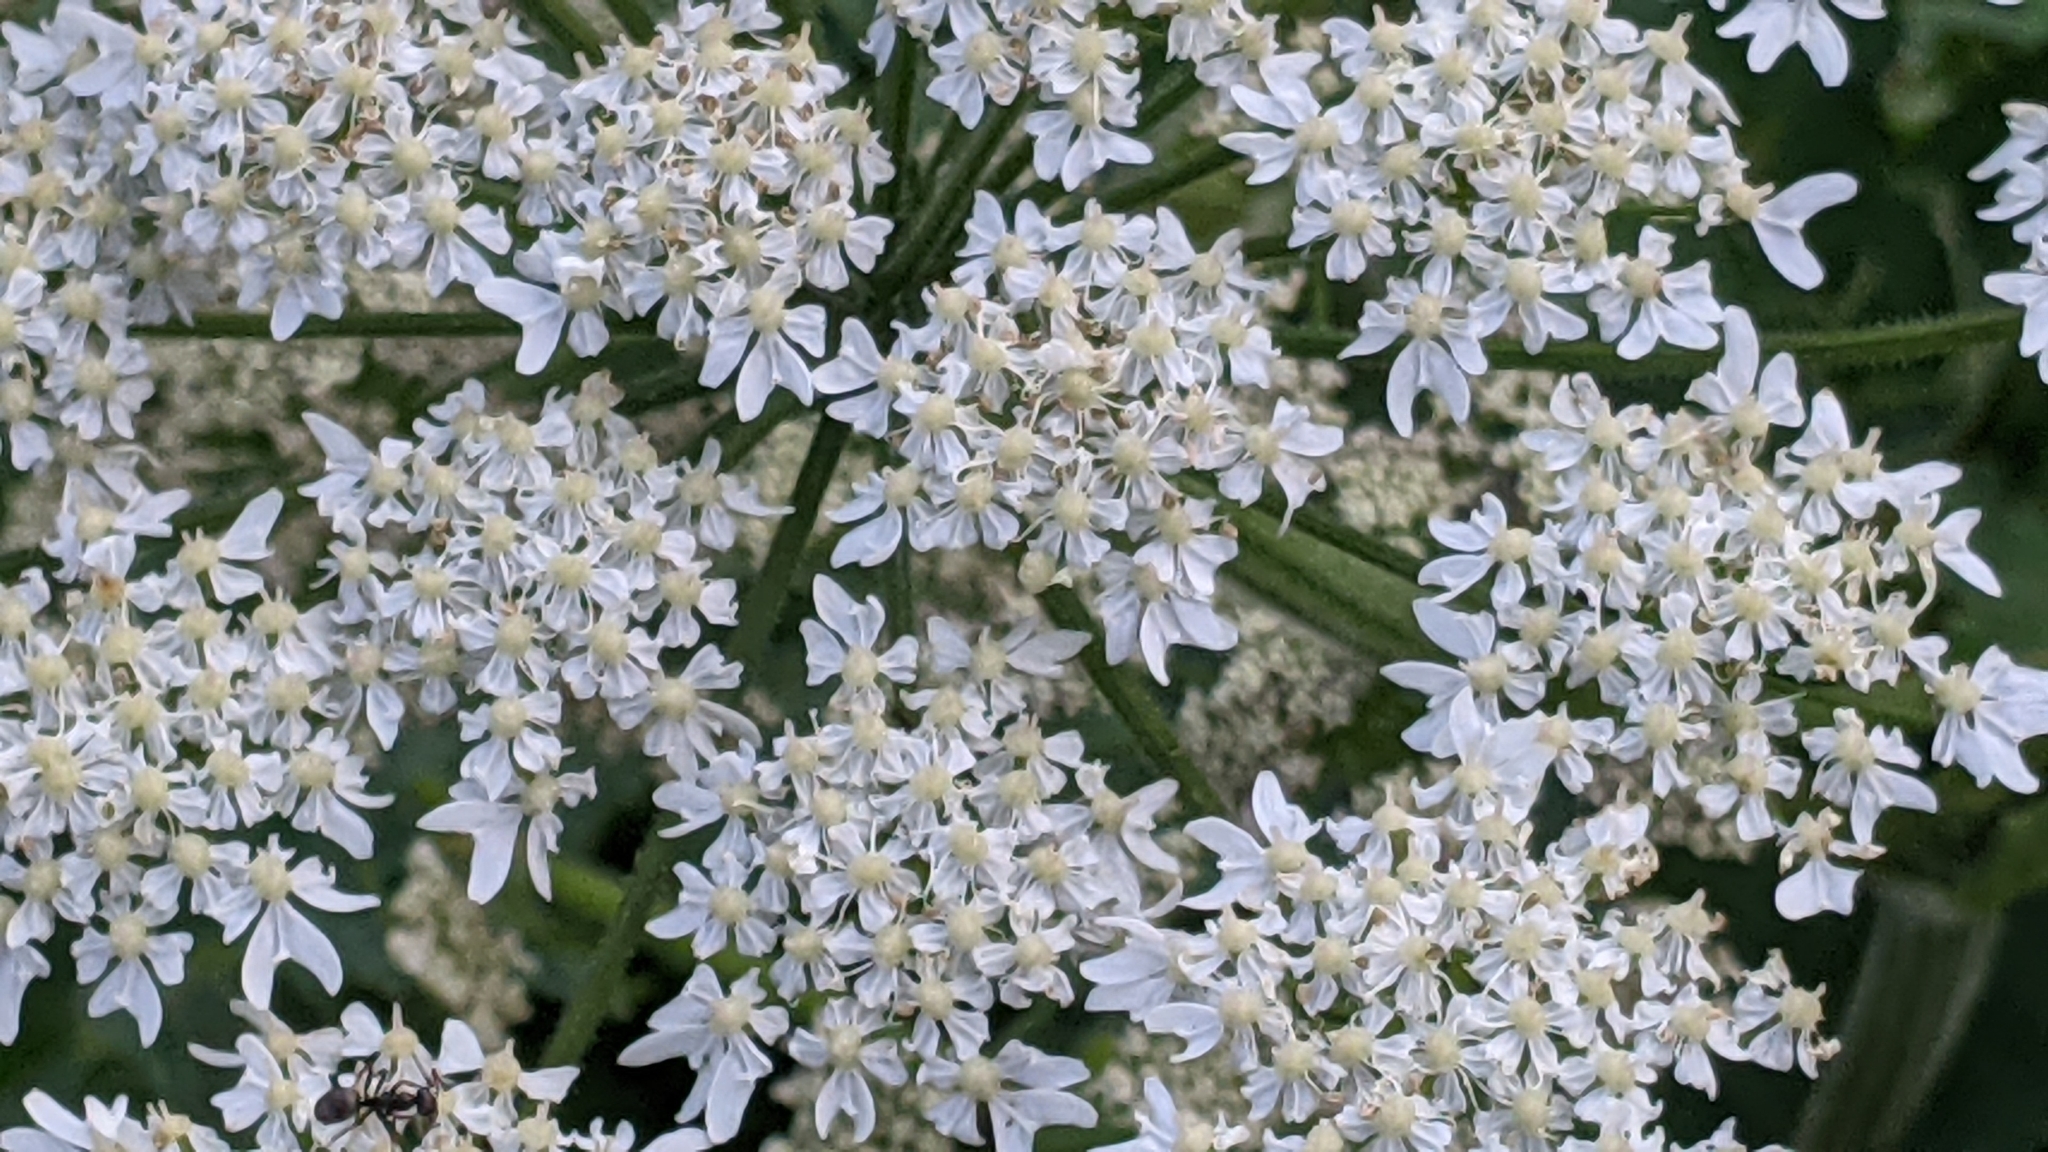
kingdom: Plantae
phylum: Tracheophyta
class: Magnoliopsida
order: Apiales
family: Apiaceae
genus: Heracleum
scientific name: Heracleum sphondylium
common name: Hogweed
